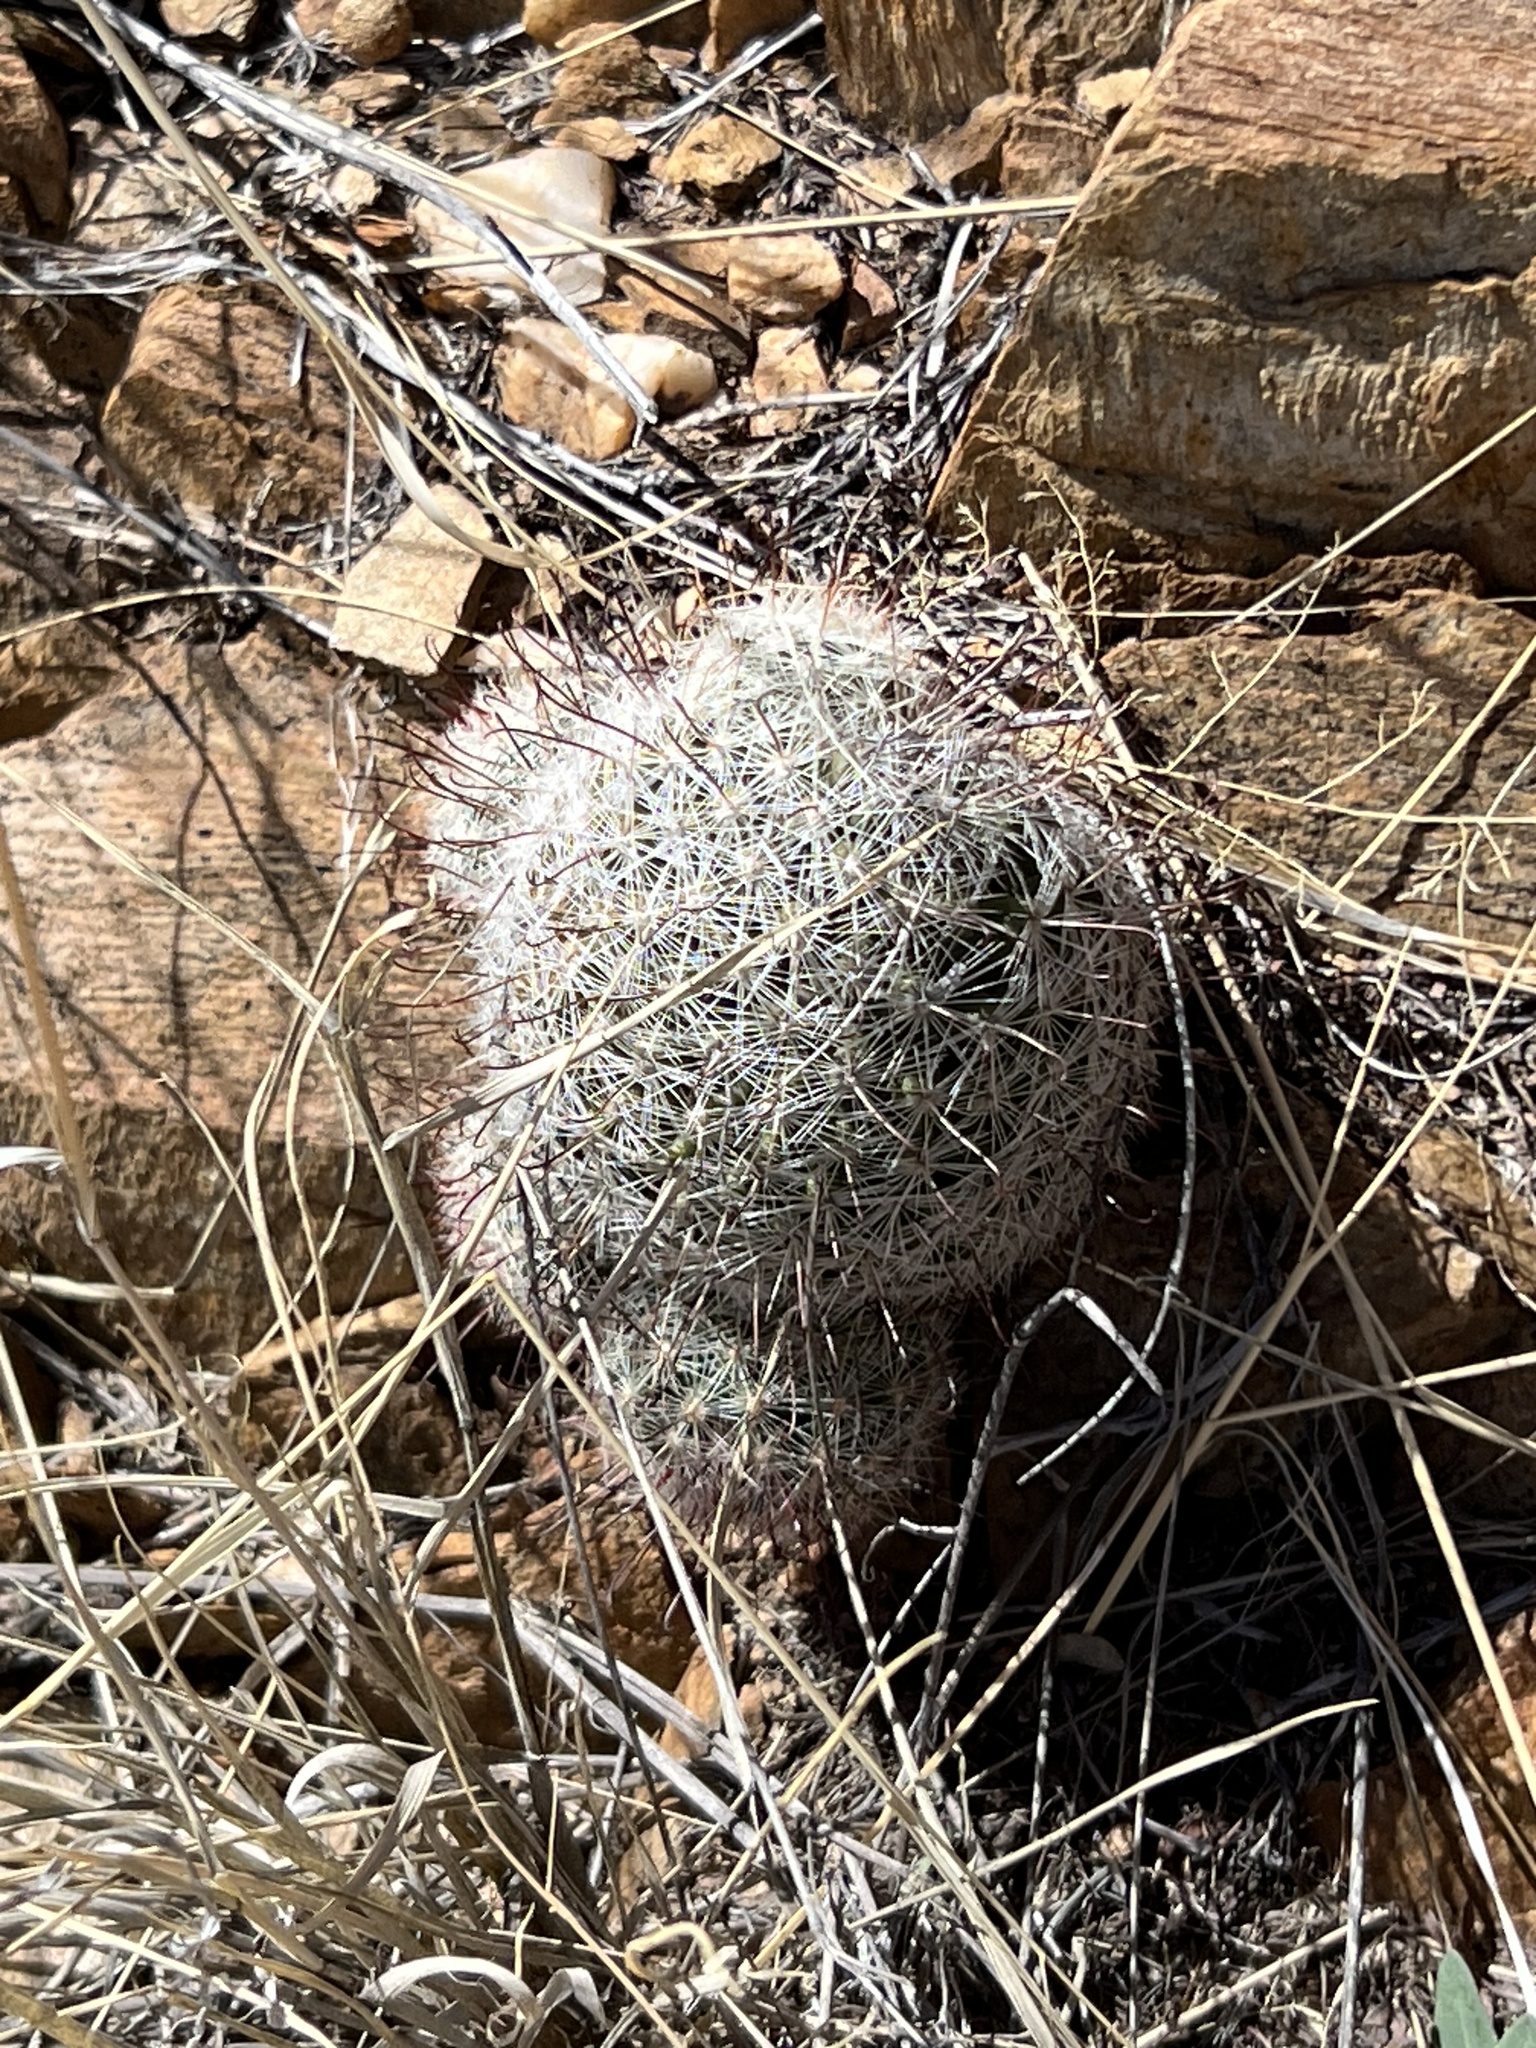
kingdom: Plantae
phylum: Tracheophyta
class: Magnoliopsida
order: Caryophyllales
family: Cactaceae
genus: Cochemiea
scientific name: Cochemiea grahamii
